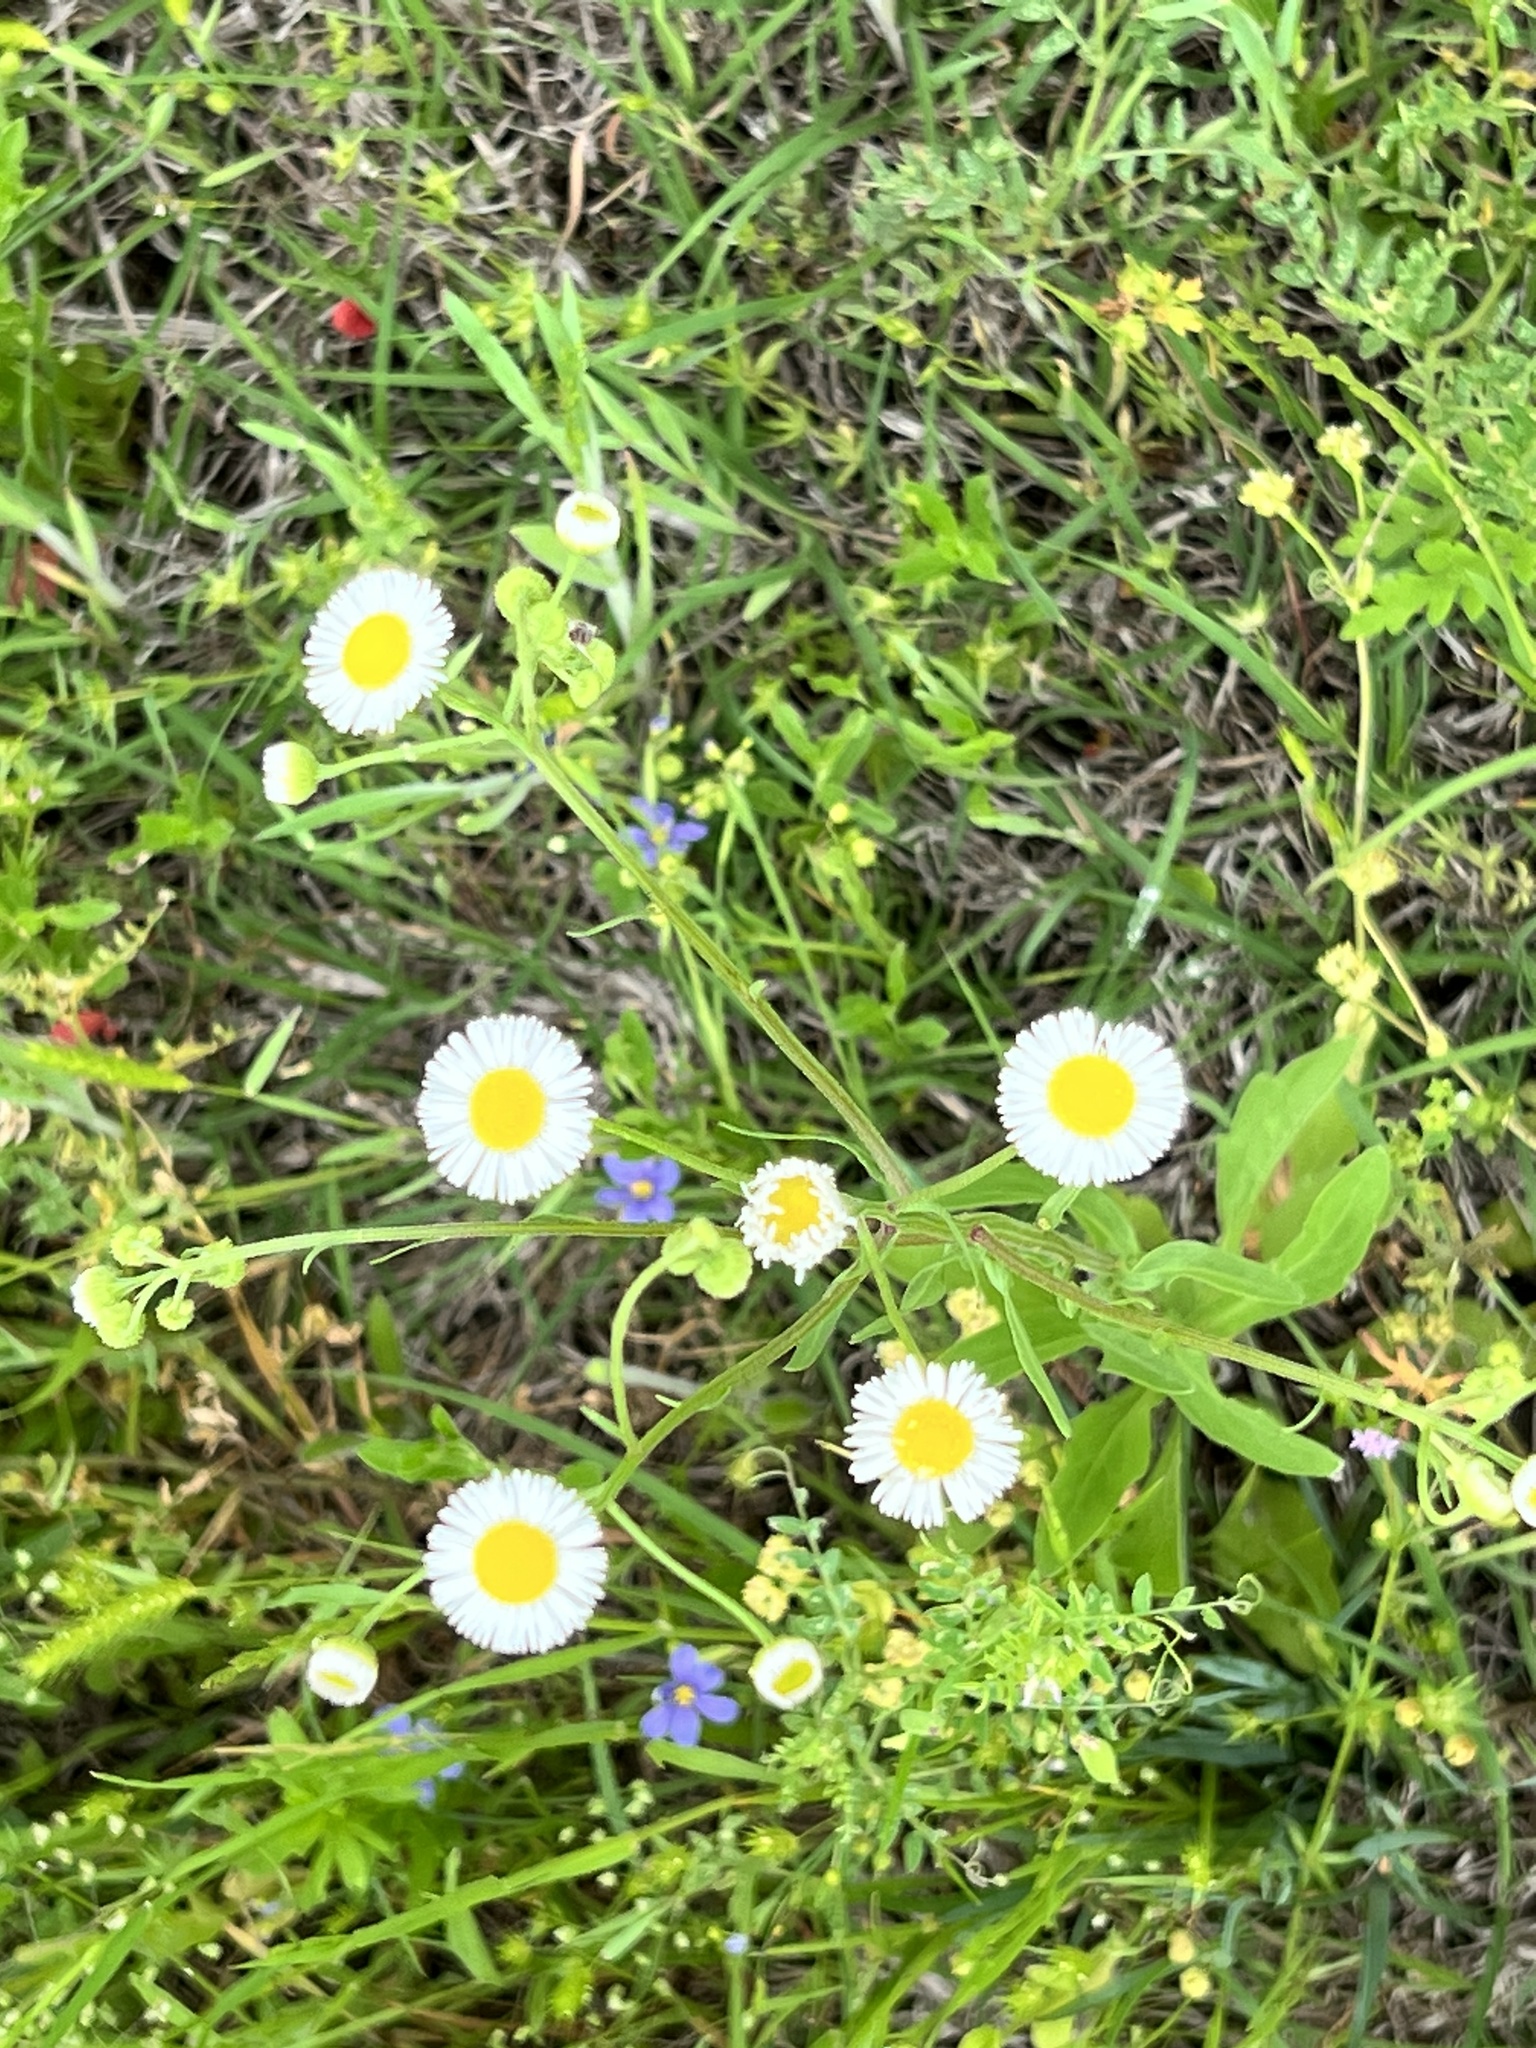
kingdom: Plantae
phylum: Tracheophyta
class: Magnoliopsida
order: Asterales
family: Asteraceae
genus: Erigeron
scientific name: Erigeron annuus
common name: Tall fleabane
